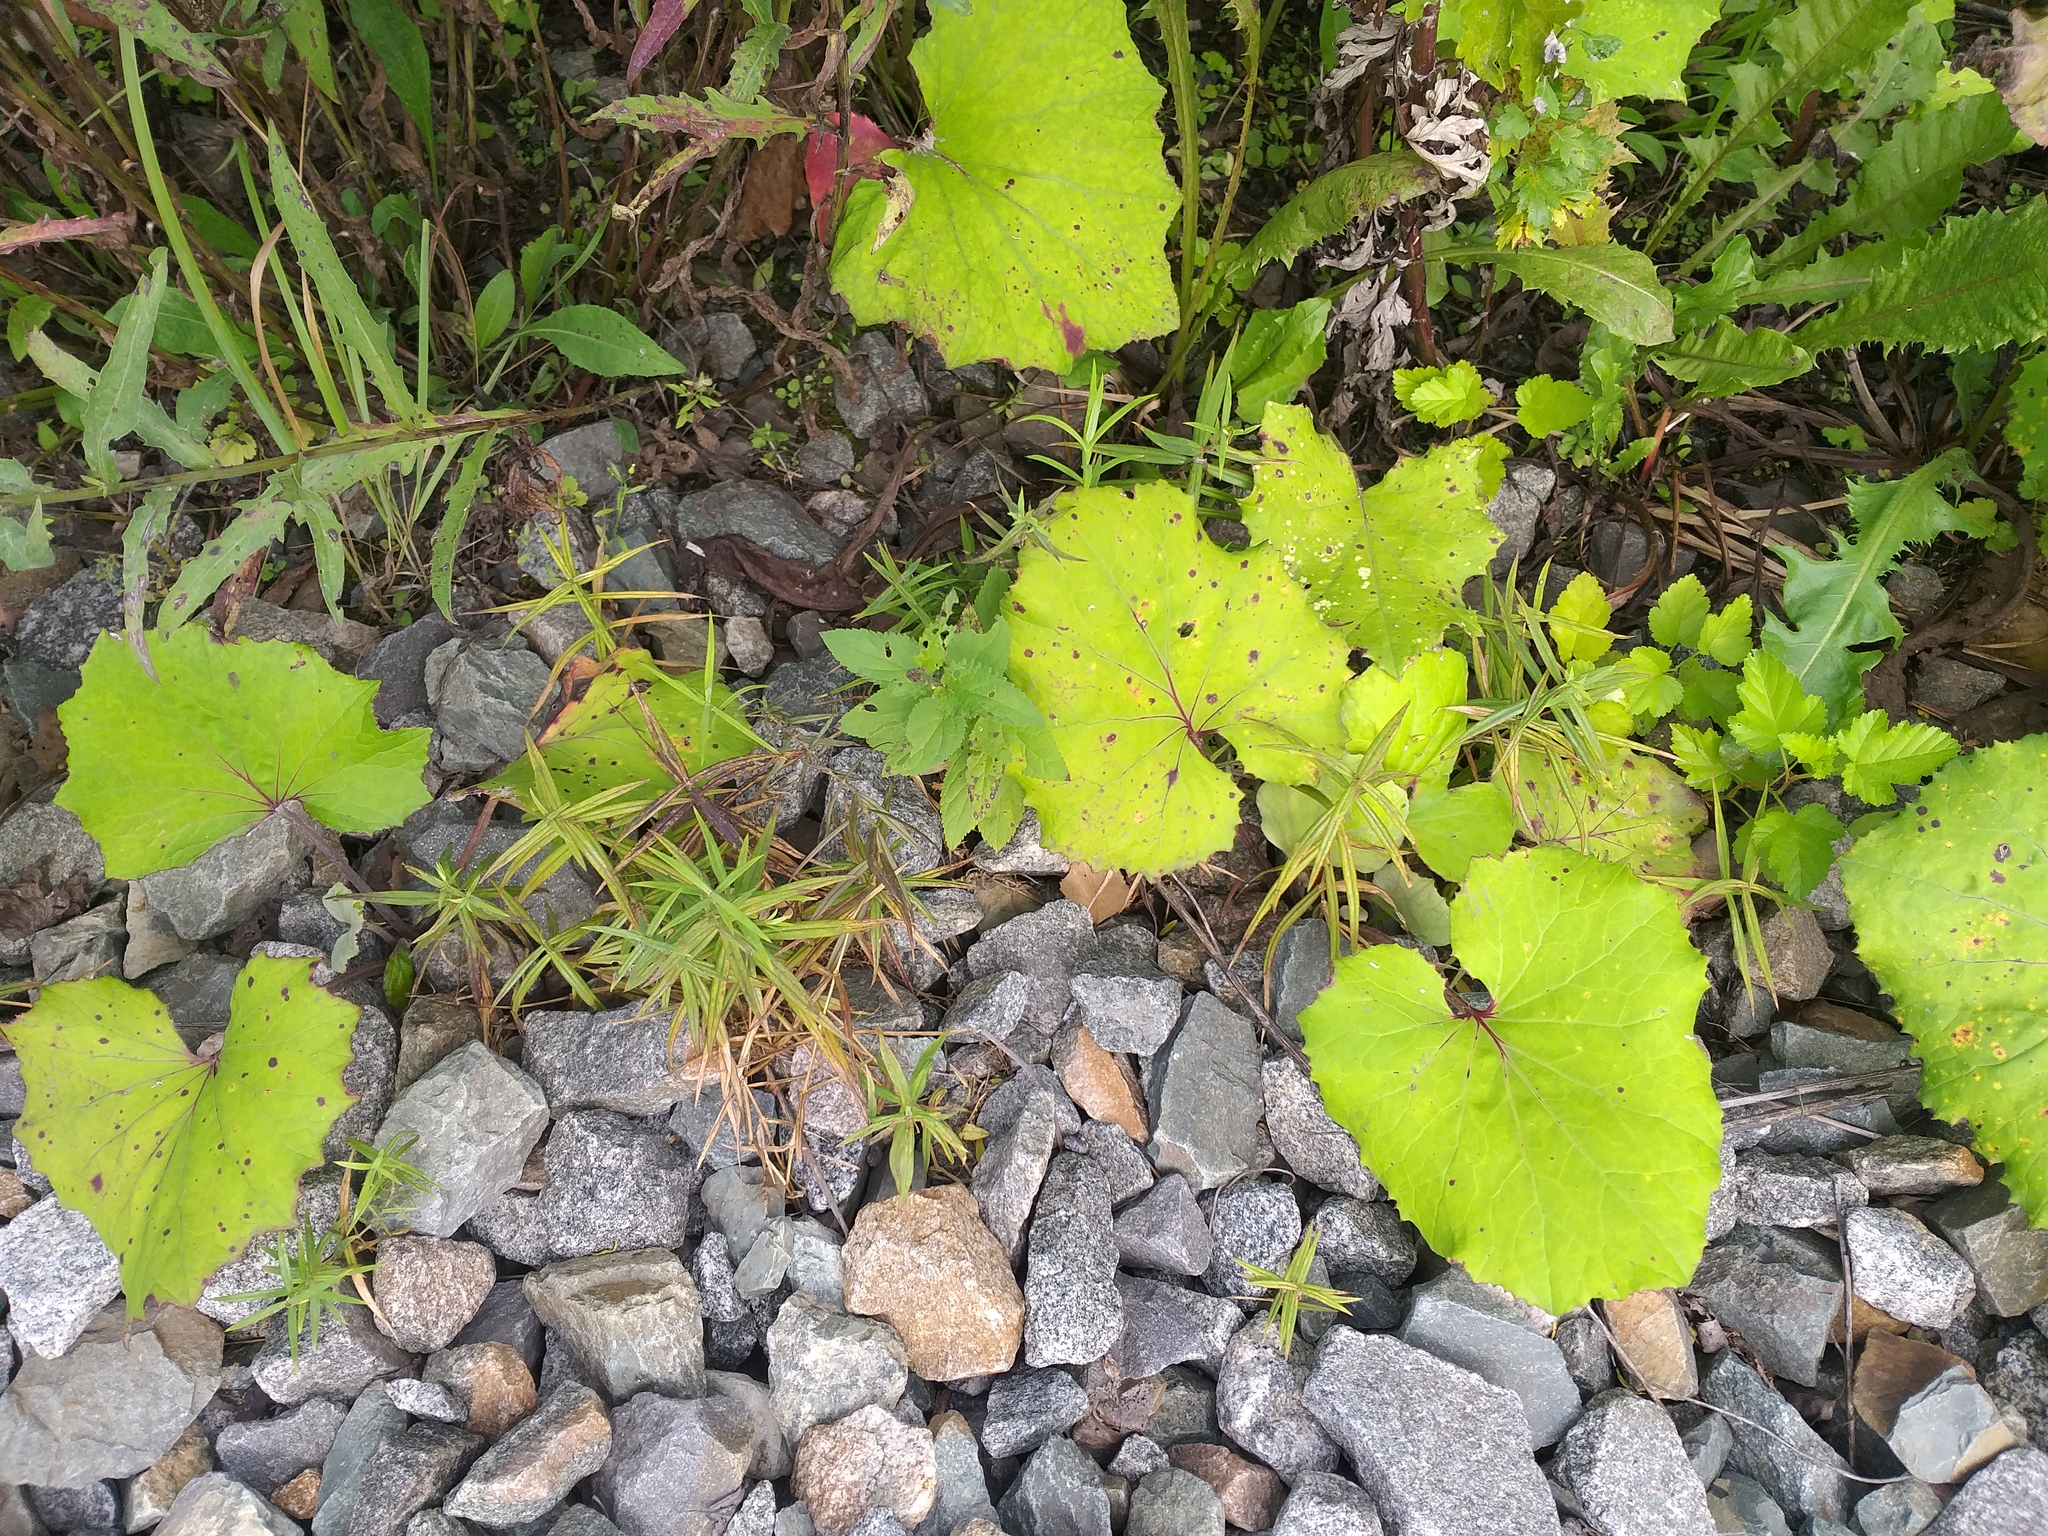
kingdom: Plantae
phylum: Tracheophyta
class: Magnoliopsida
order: Caryophyllales
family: Caryophyllaceae
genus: Rabelera
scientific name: Rabelera holostea
